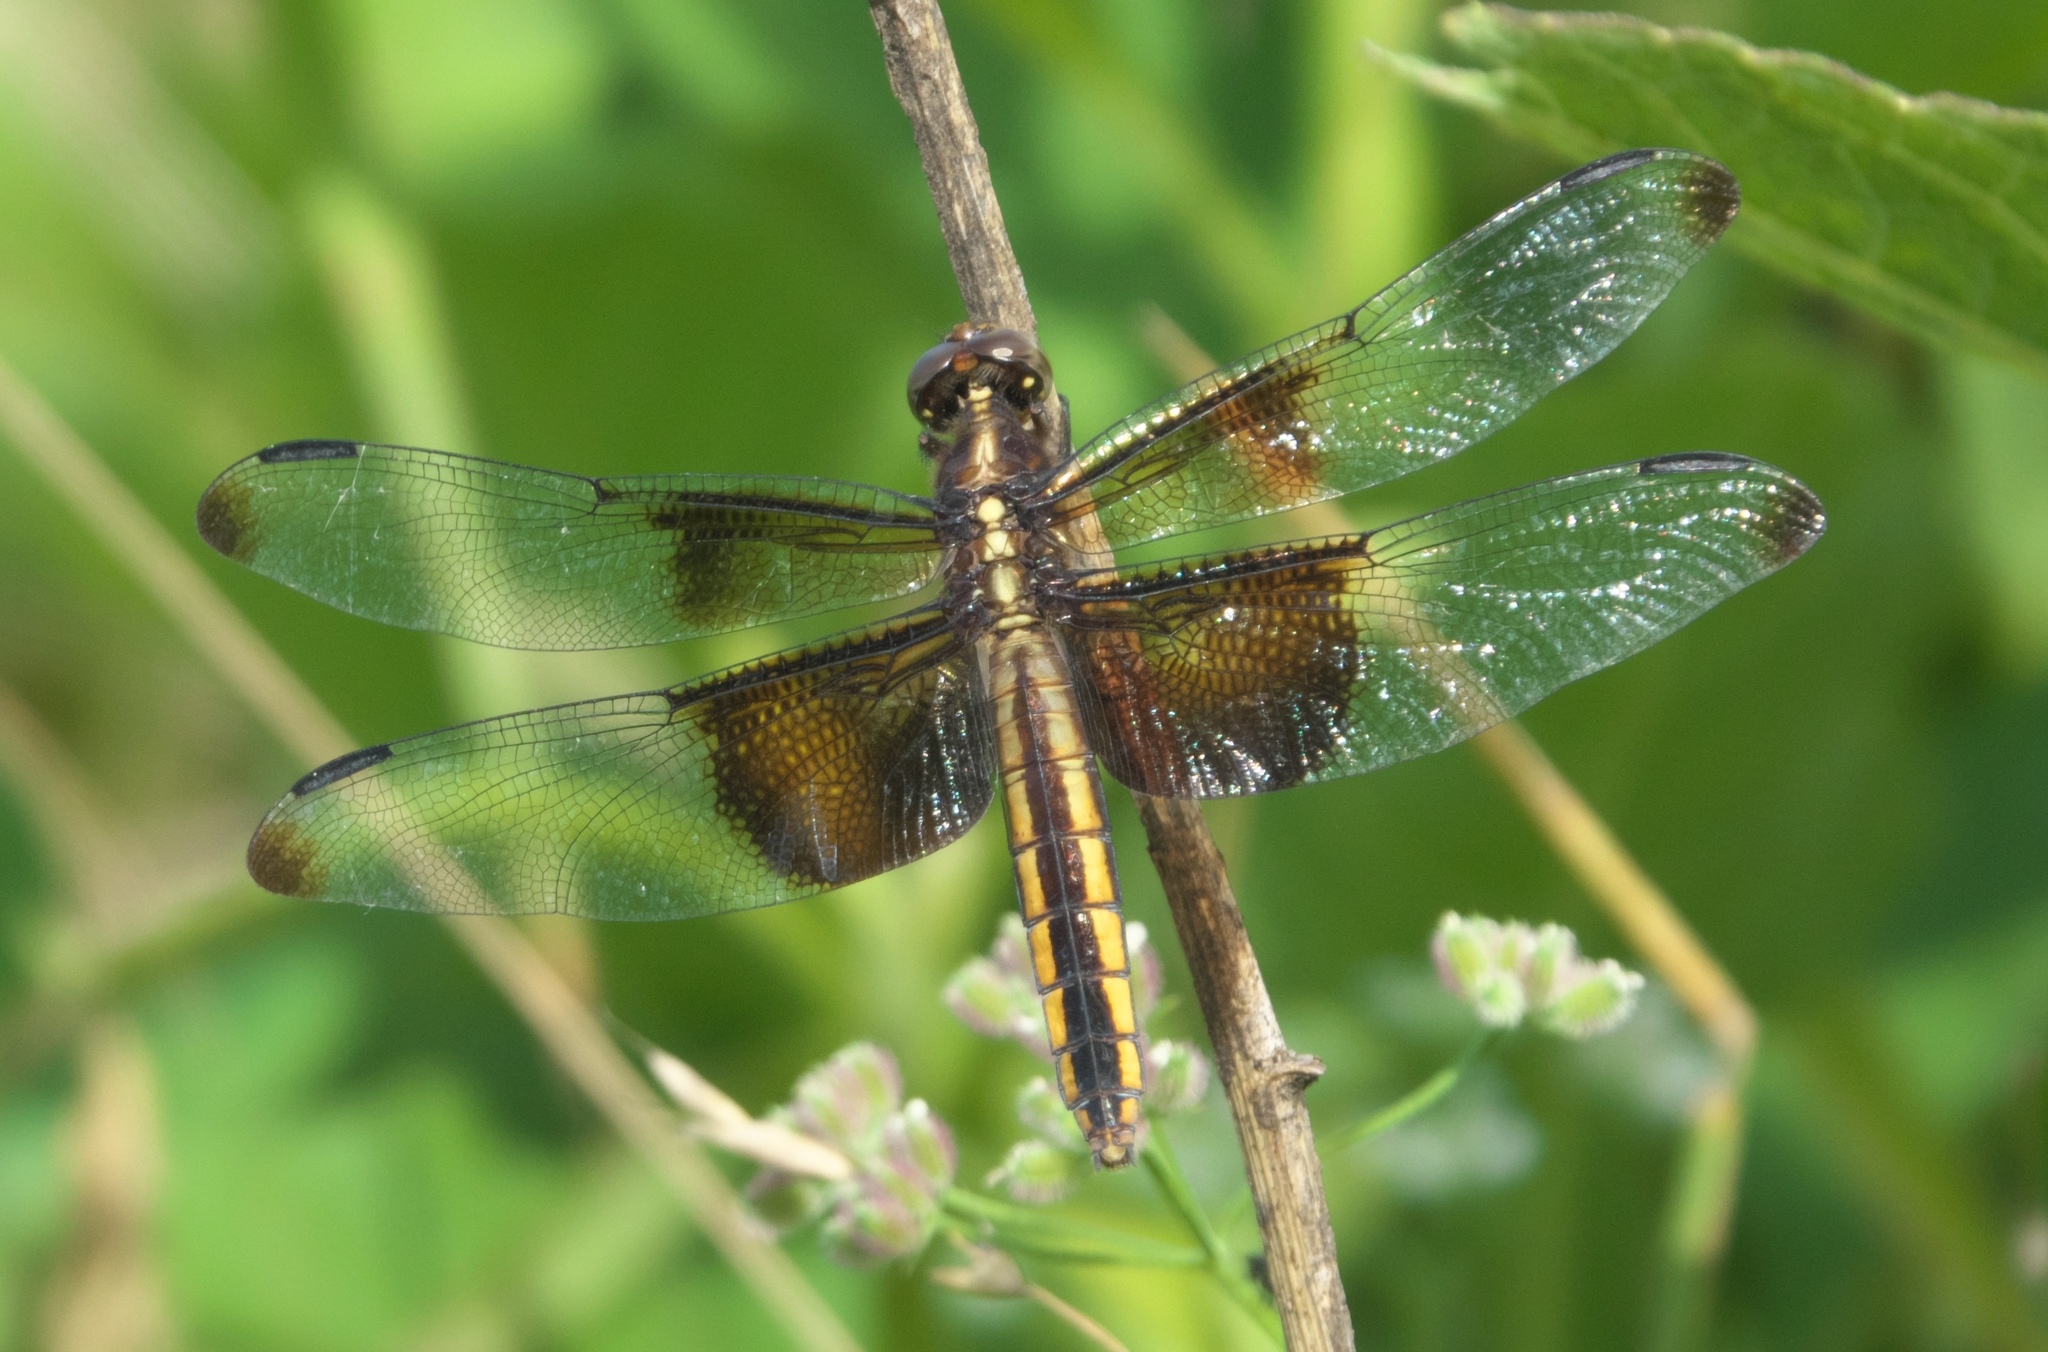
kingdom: Animalia
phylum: Arthropoda
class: Insecta
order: Odonata
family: Libellulidae
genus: Libellula
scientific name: Libellula luctuosa
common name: Widow skimmer
